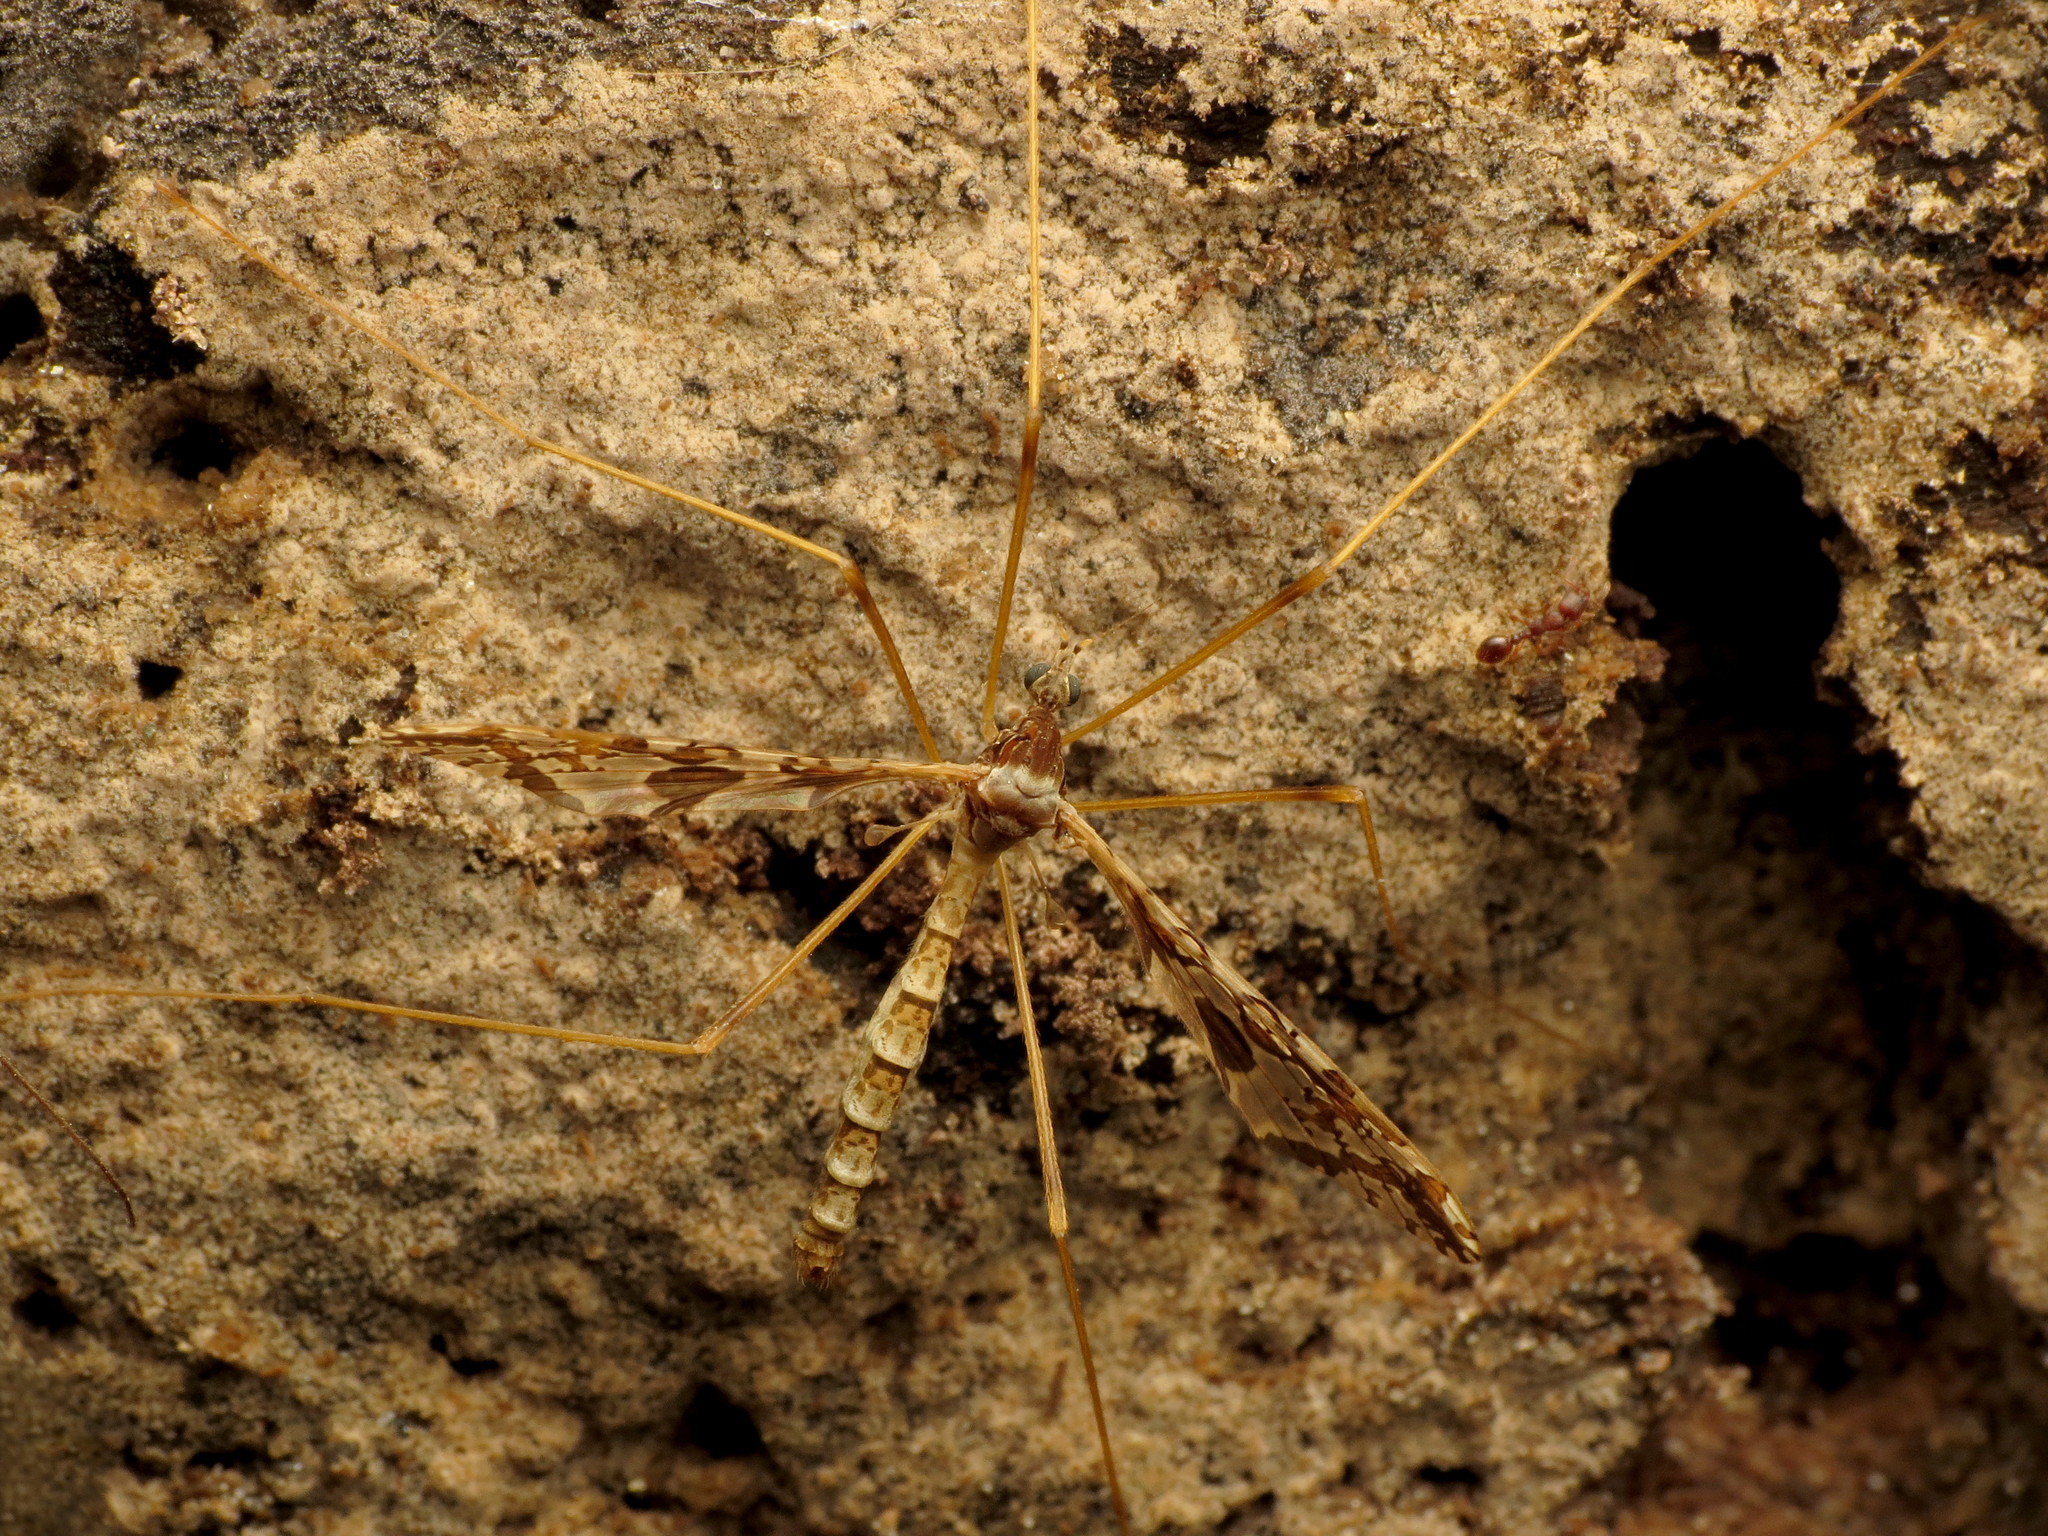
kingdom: Animalia
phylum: Arthropoda
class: Insecta
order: Diptera
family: Limoniidae
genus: Epiphragma
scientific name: Epiphragma solatrix
